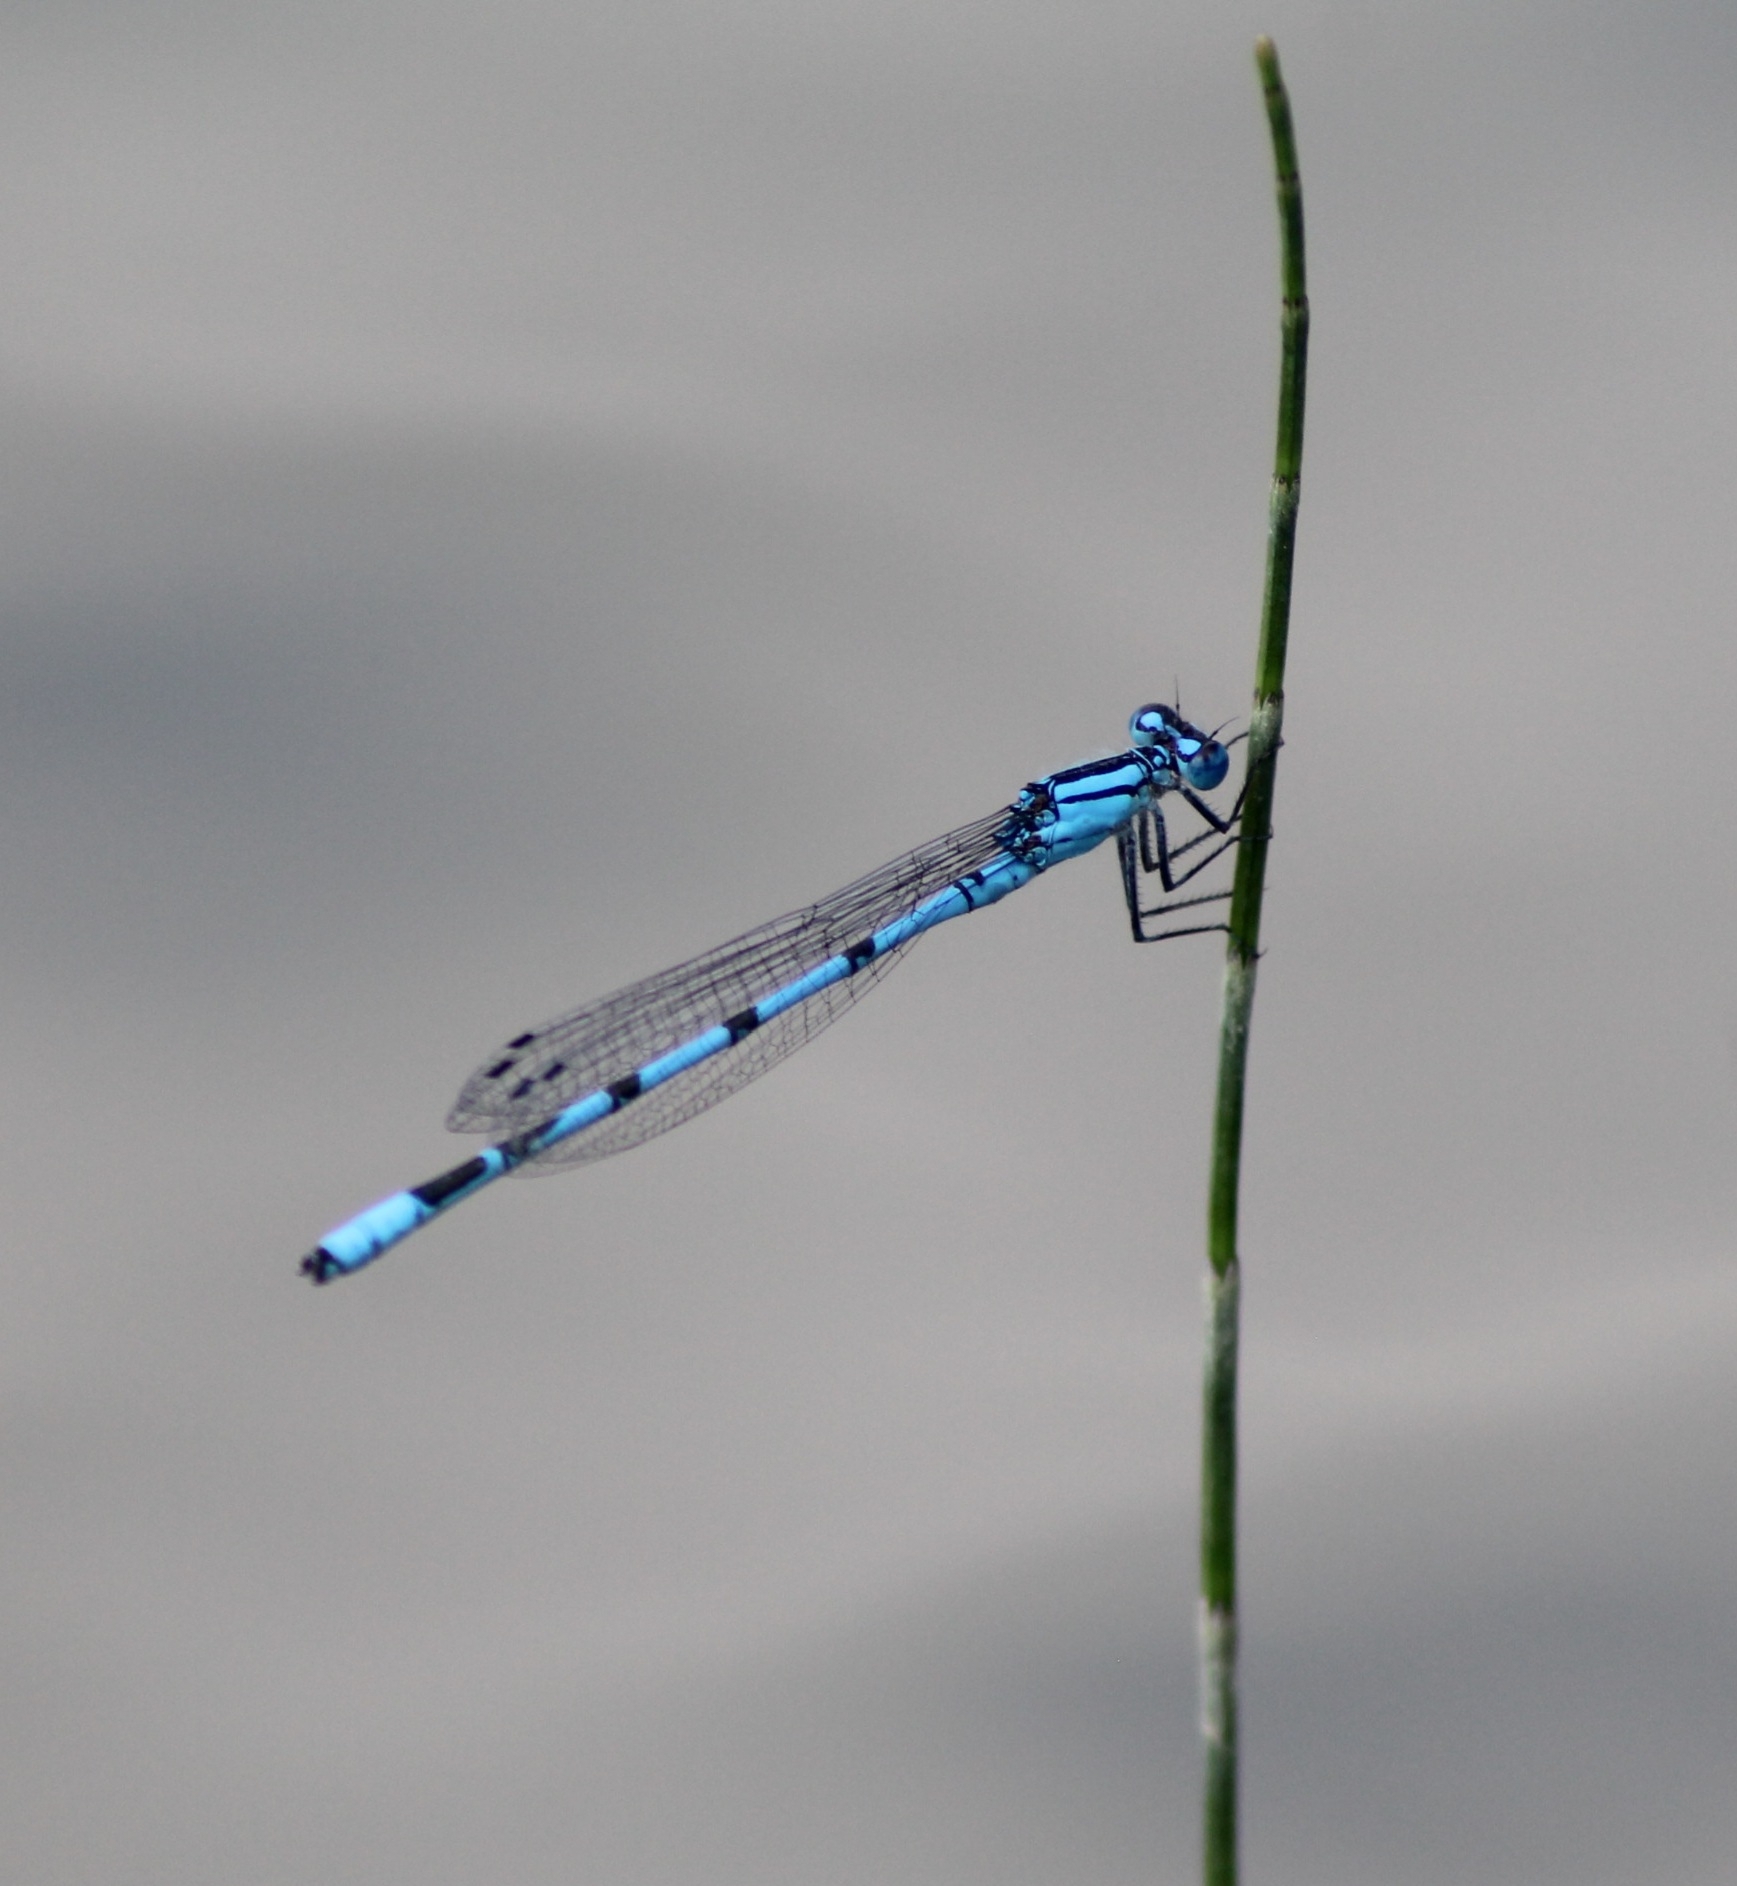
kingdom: Animalia
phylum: Arthropoda
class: Insecta
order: Odonata
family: Coenagrionidae
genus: Enallagma
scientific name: Enallagma cyathigerum
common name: Common blue damselfly
